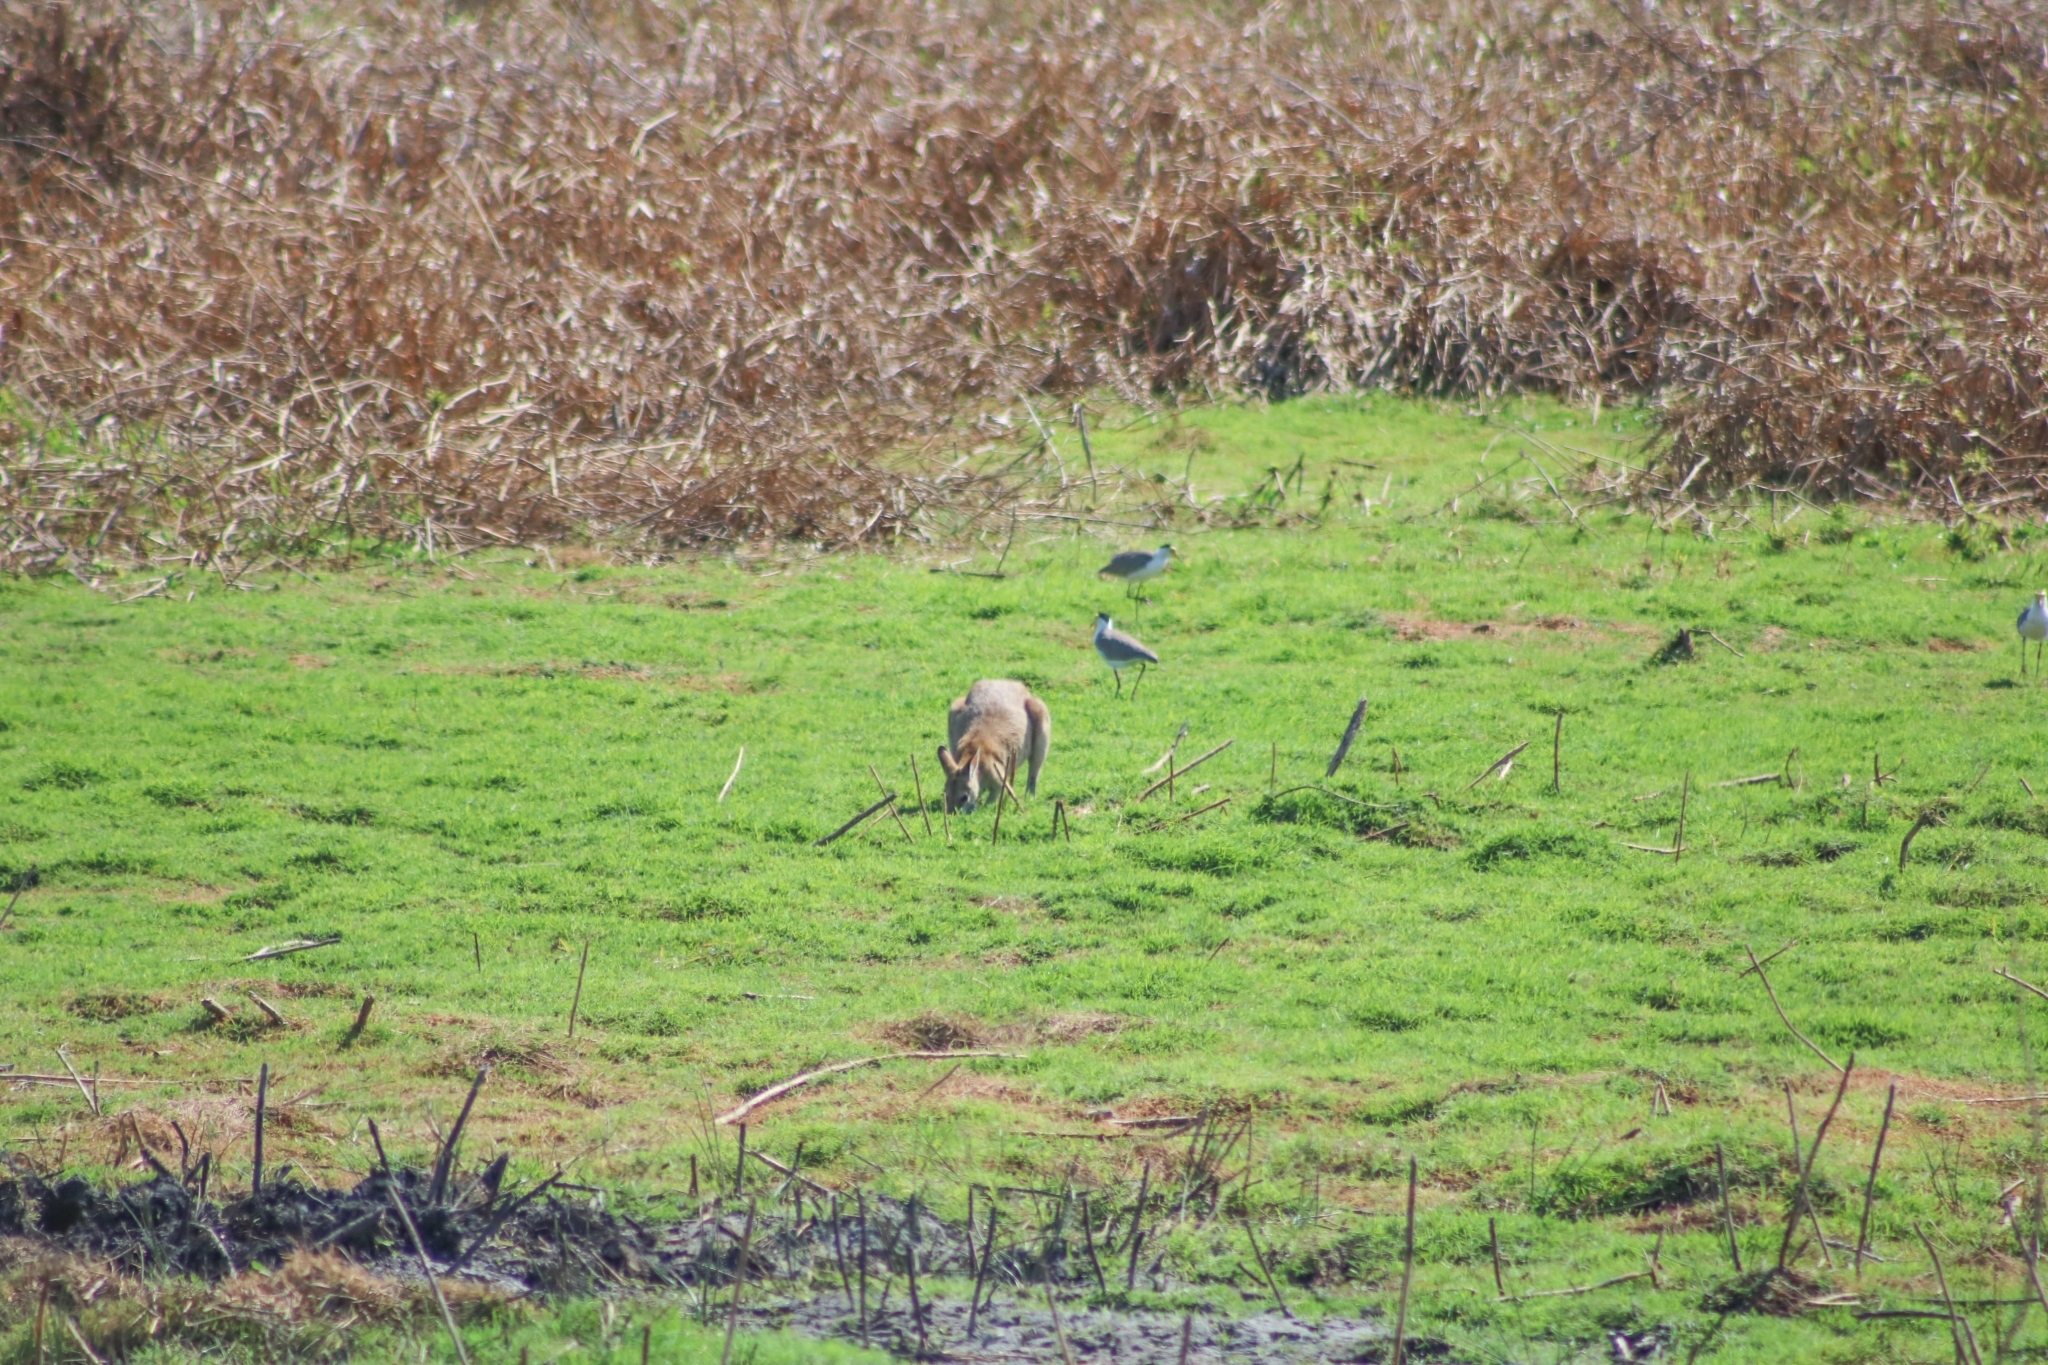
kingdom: Animalia
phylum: Chordata
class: Mammalia
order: Diprotodontia
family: Macropodidae
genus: Macropus
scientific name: Macropus agilis
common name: Agile wallaby
